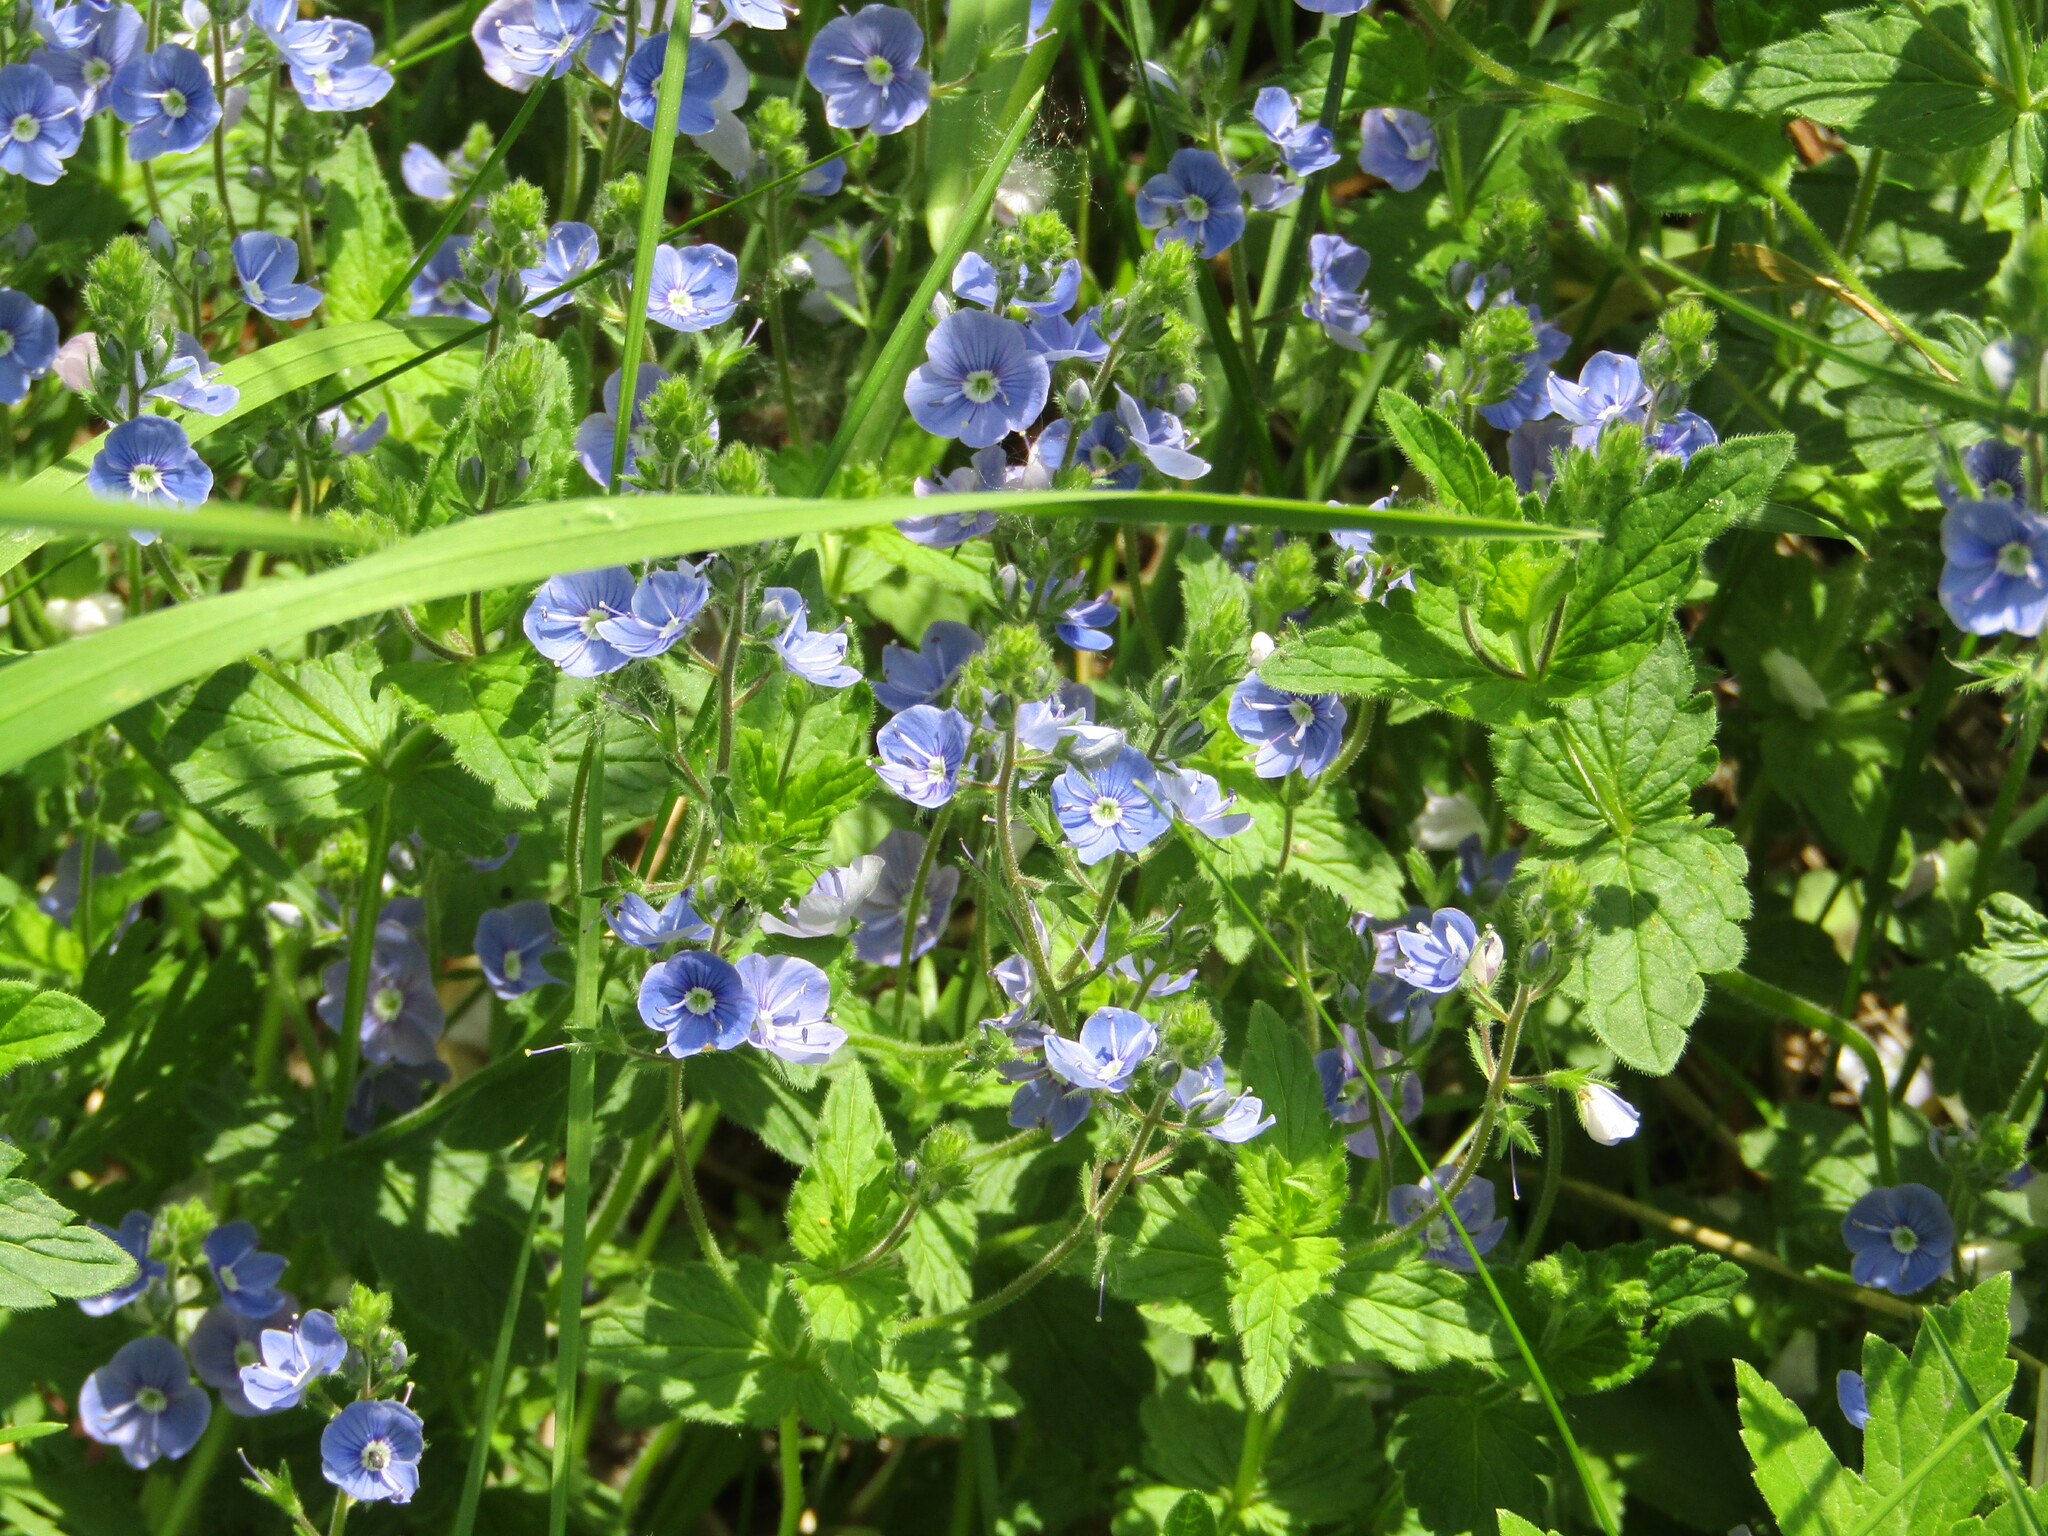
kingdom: Plantae
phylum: Tracheophyta
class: Magnoliopsida
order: Lamiales
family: Plantaginaceae
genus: Veronica
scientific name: Veronica chamaedrys
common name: Germander speedwell
